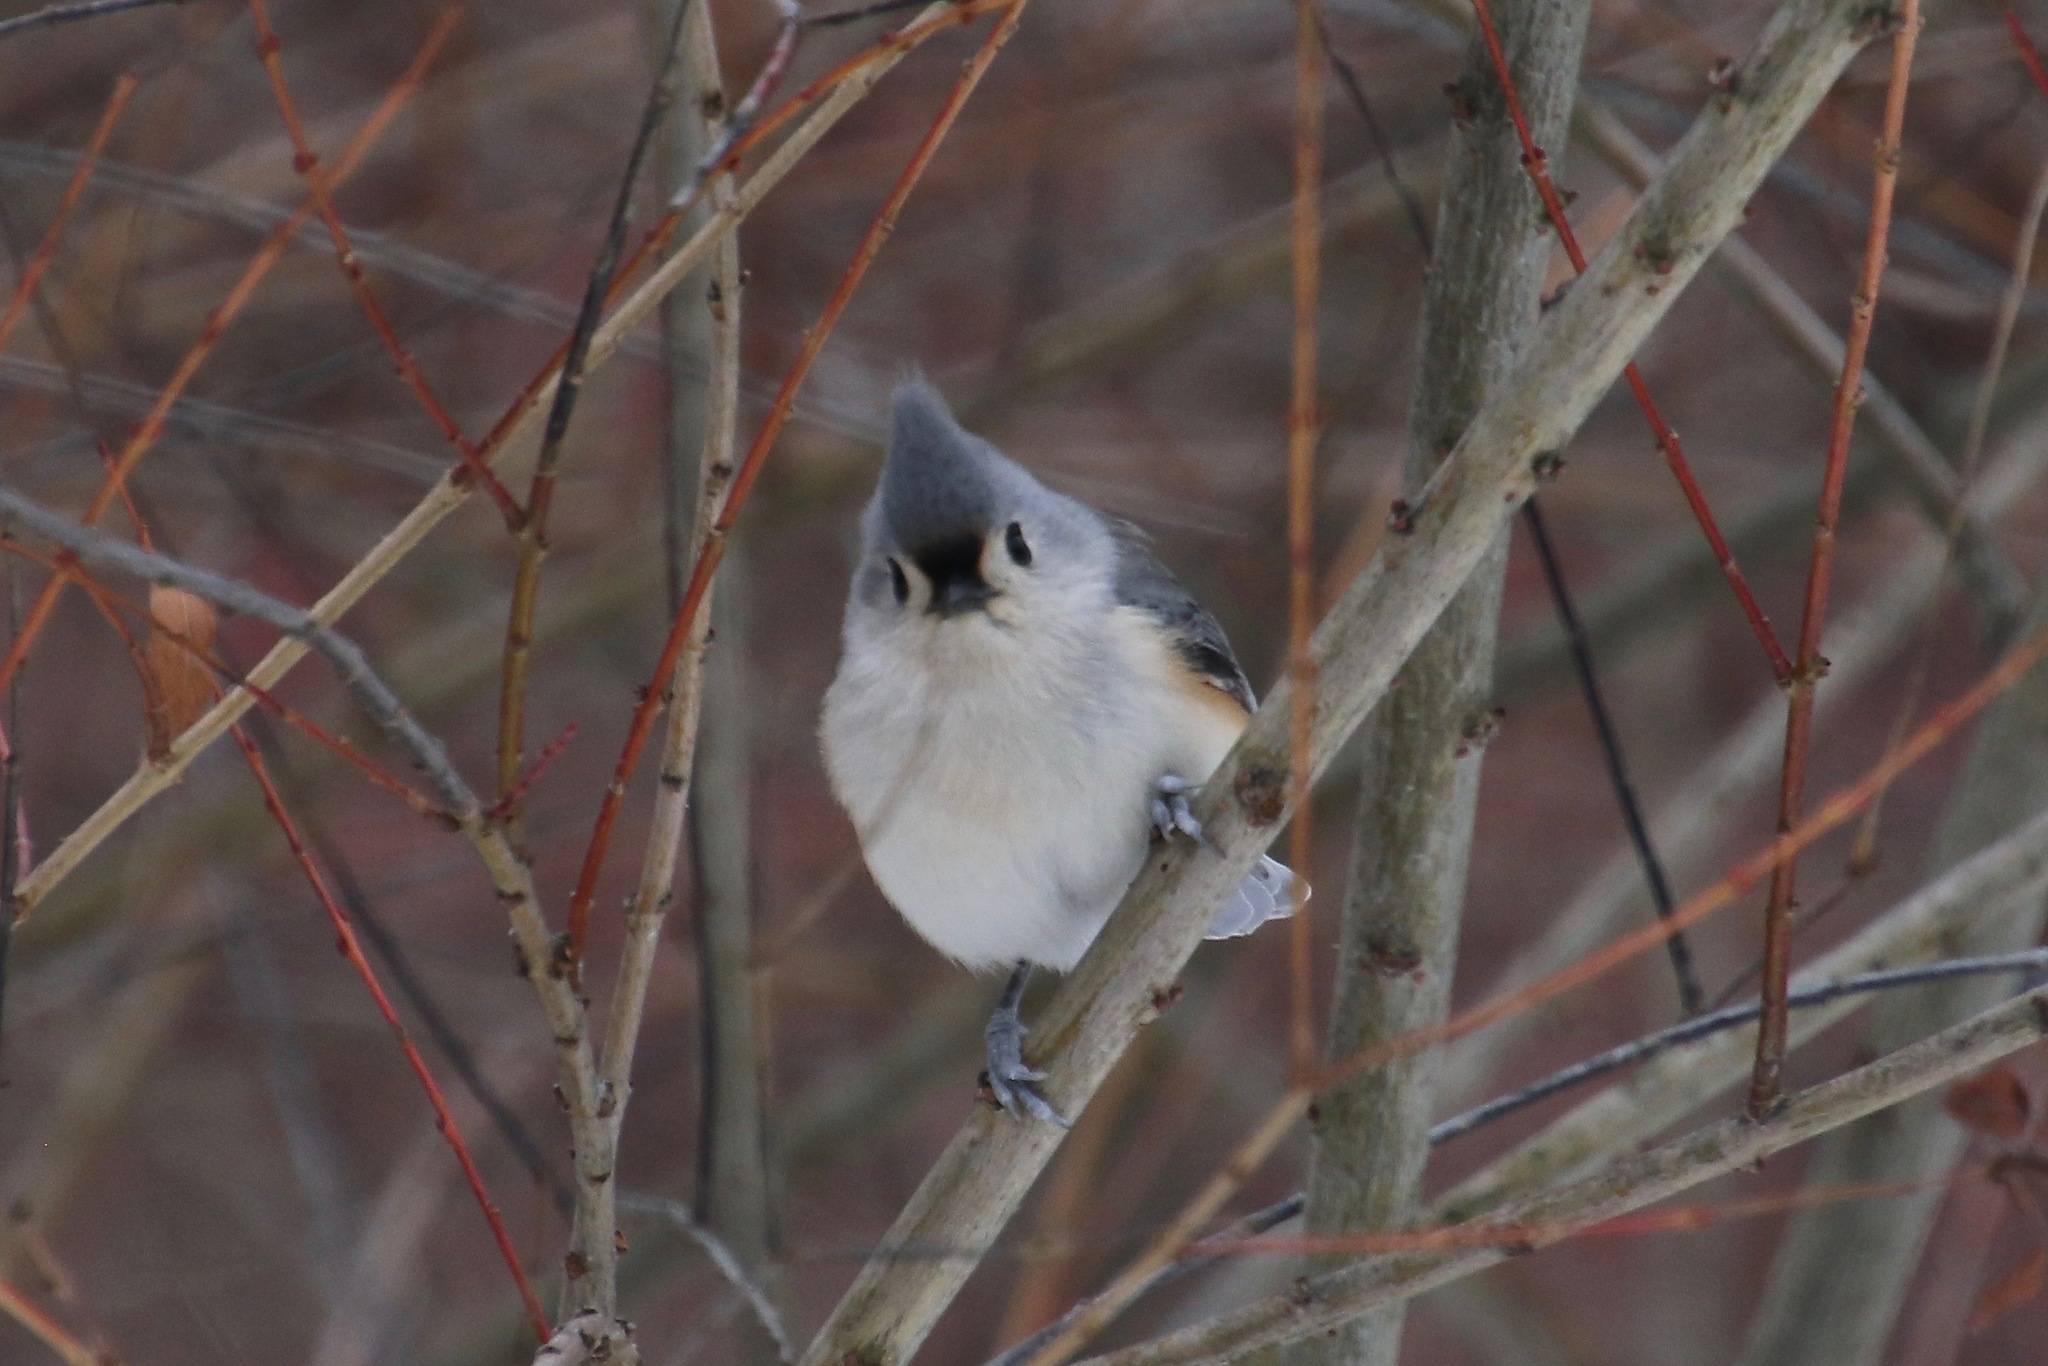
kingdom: Animalia
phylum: Chordata
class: Aves
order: Passeriformes
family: Paridae
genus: Baeolophus
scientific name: Baeolophus bicolor
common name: Tufted titmouse
